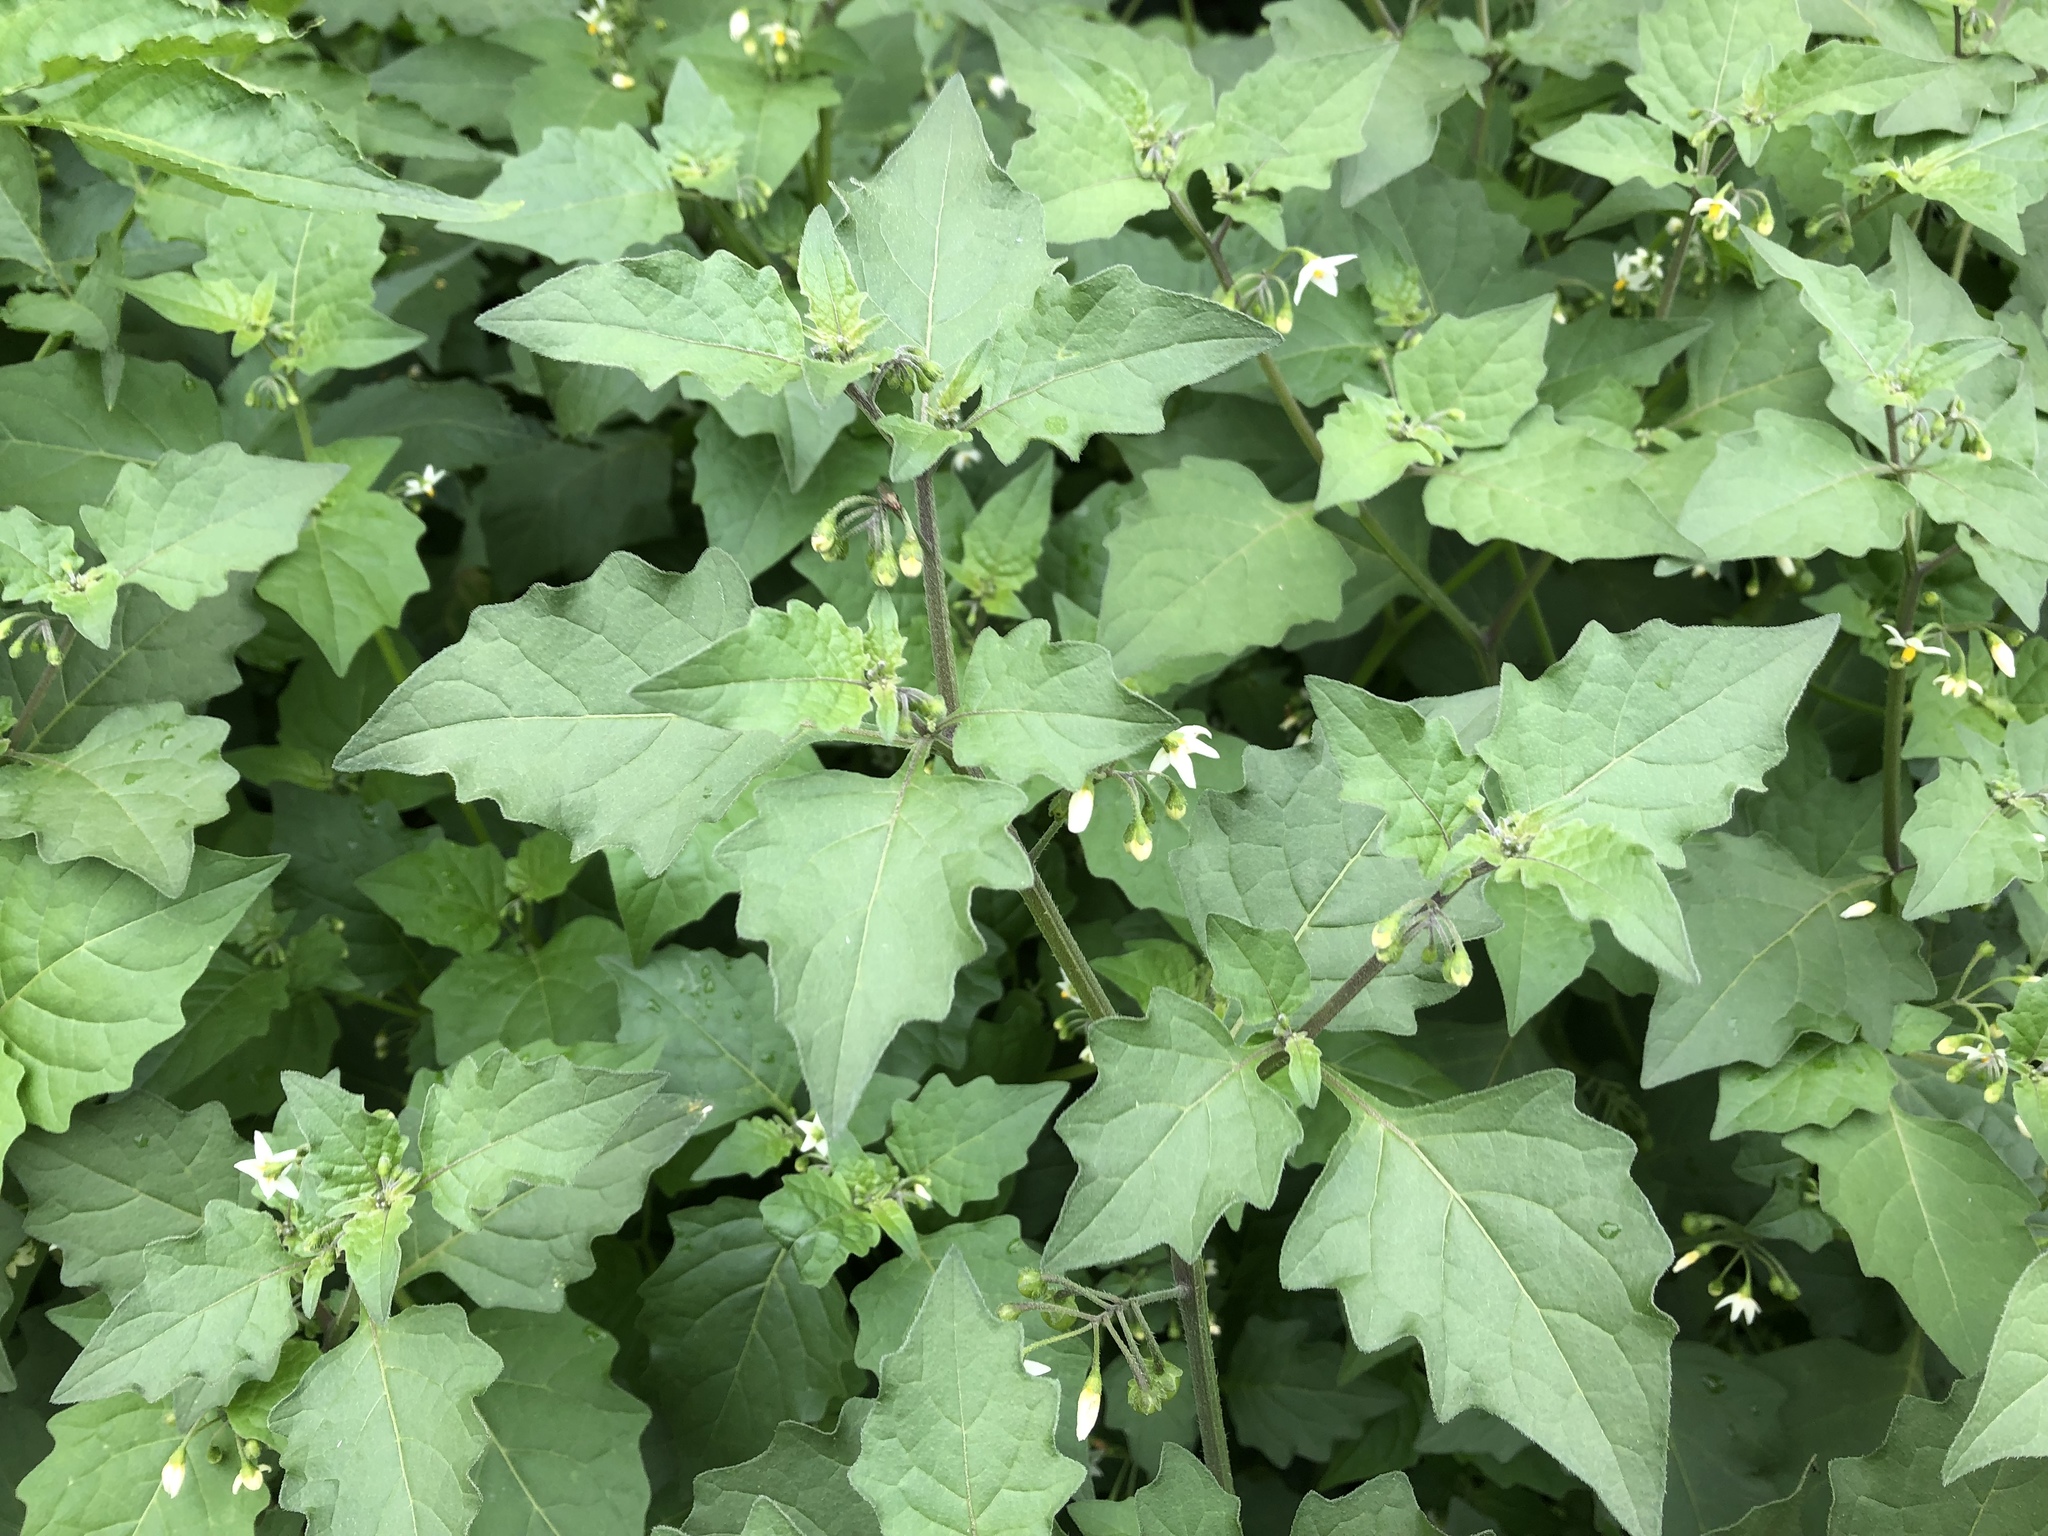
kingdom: Plantae
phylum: Tracheophyta
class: Magnoliopsida
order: Solanales
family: Solanaceae
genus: Solanum
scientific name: Solanum decipiens
